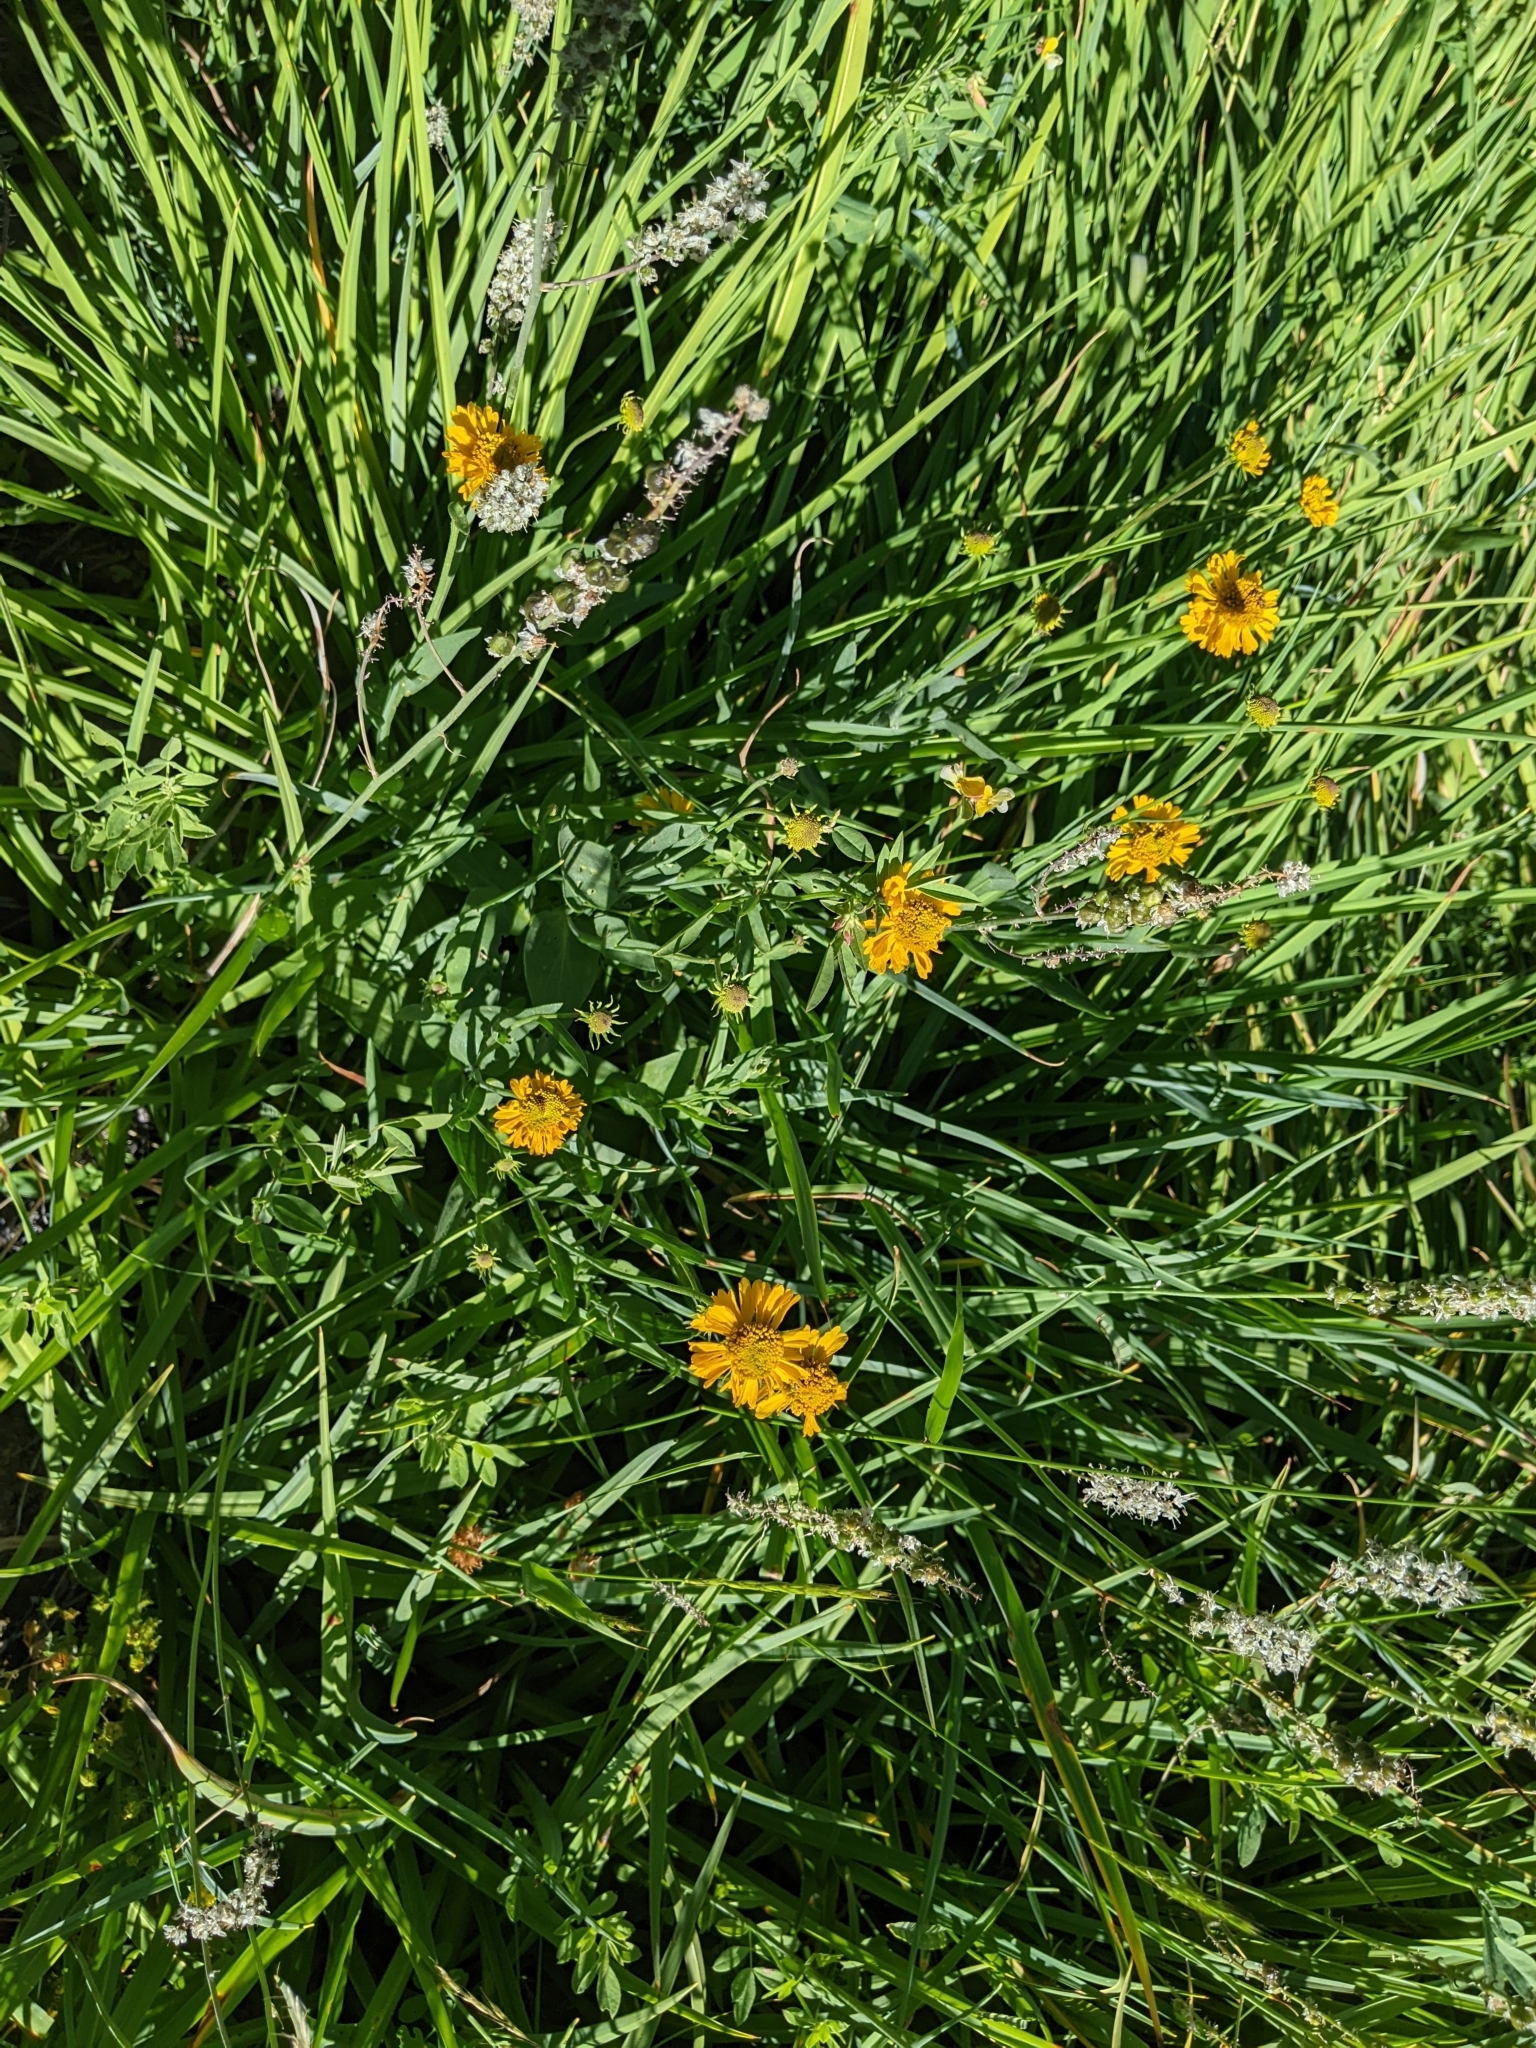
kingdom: Plantae
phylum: Tracheophyta
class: Magnoliopsida
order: Asterales
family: Asteraceae
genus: Helenium
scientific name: Helenium bigelovii
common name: Bigelow's sneezeweed
